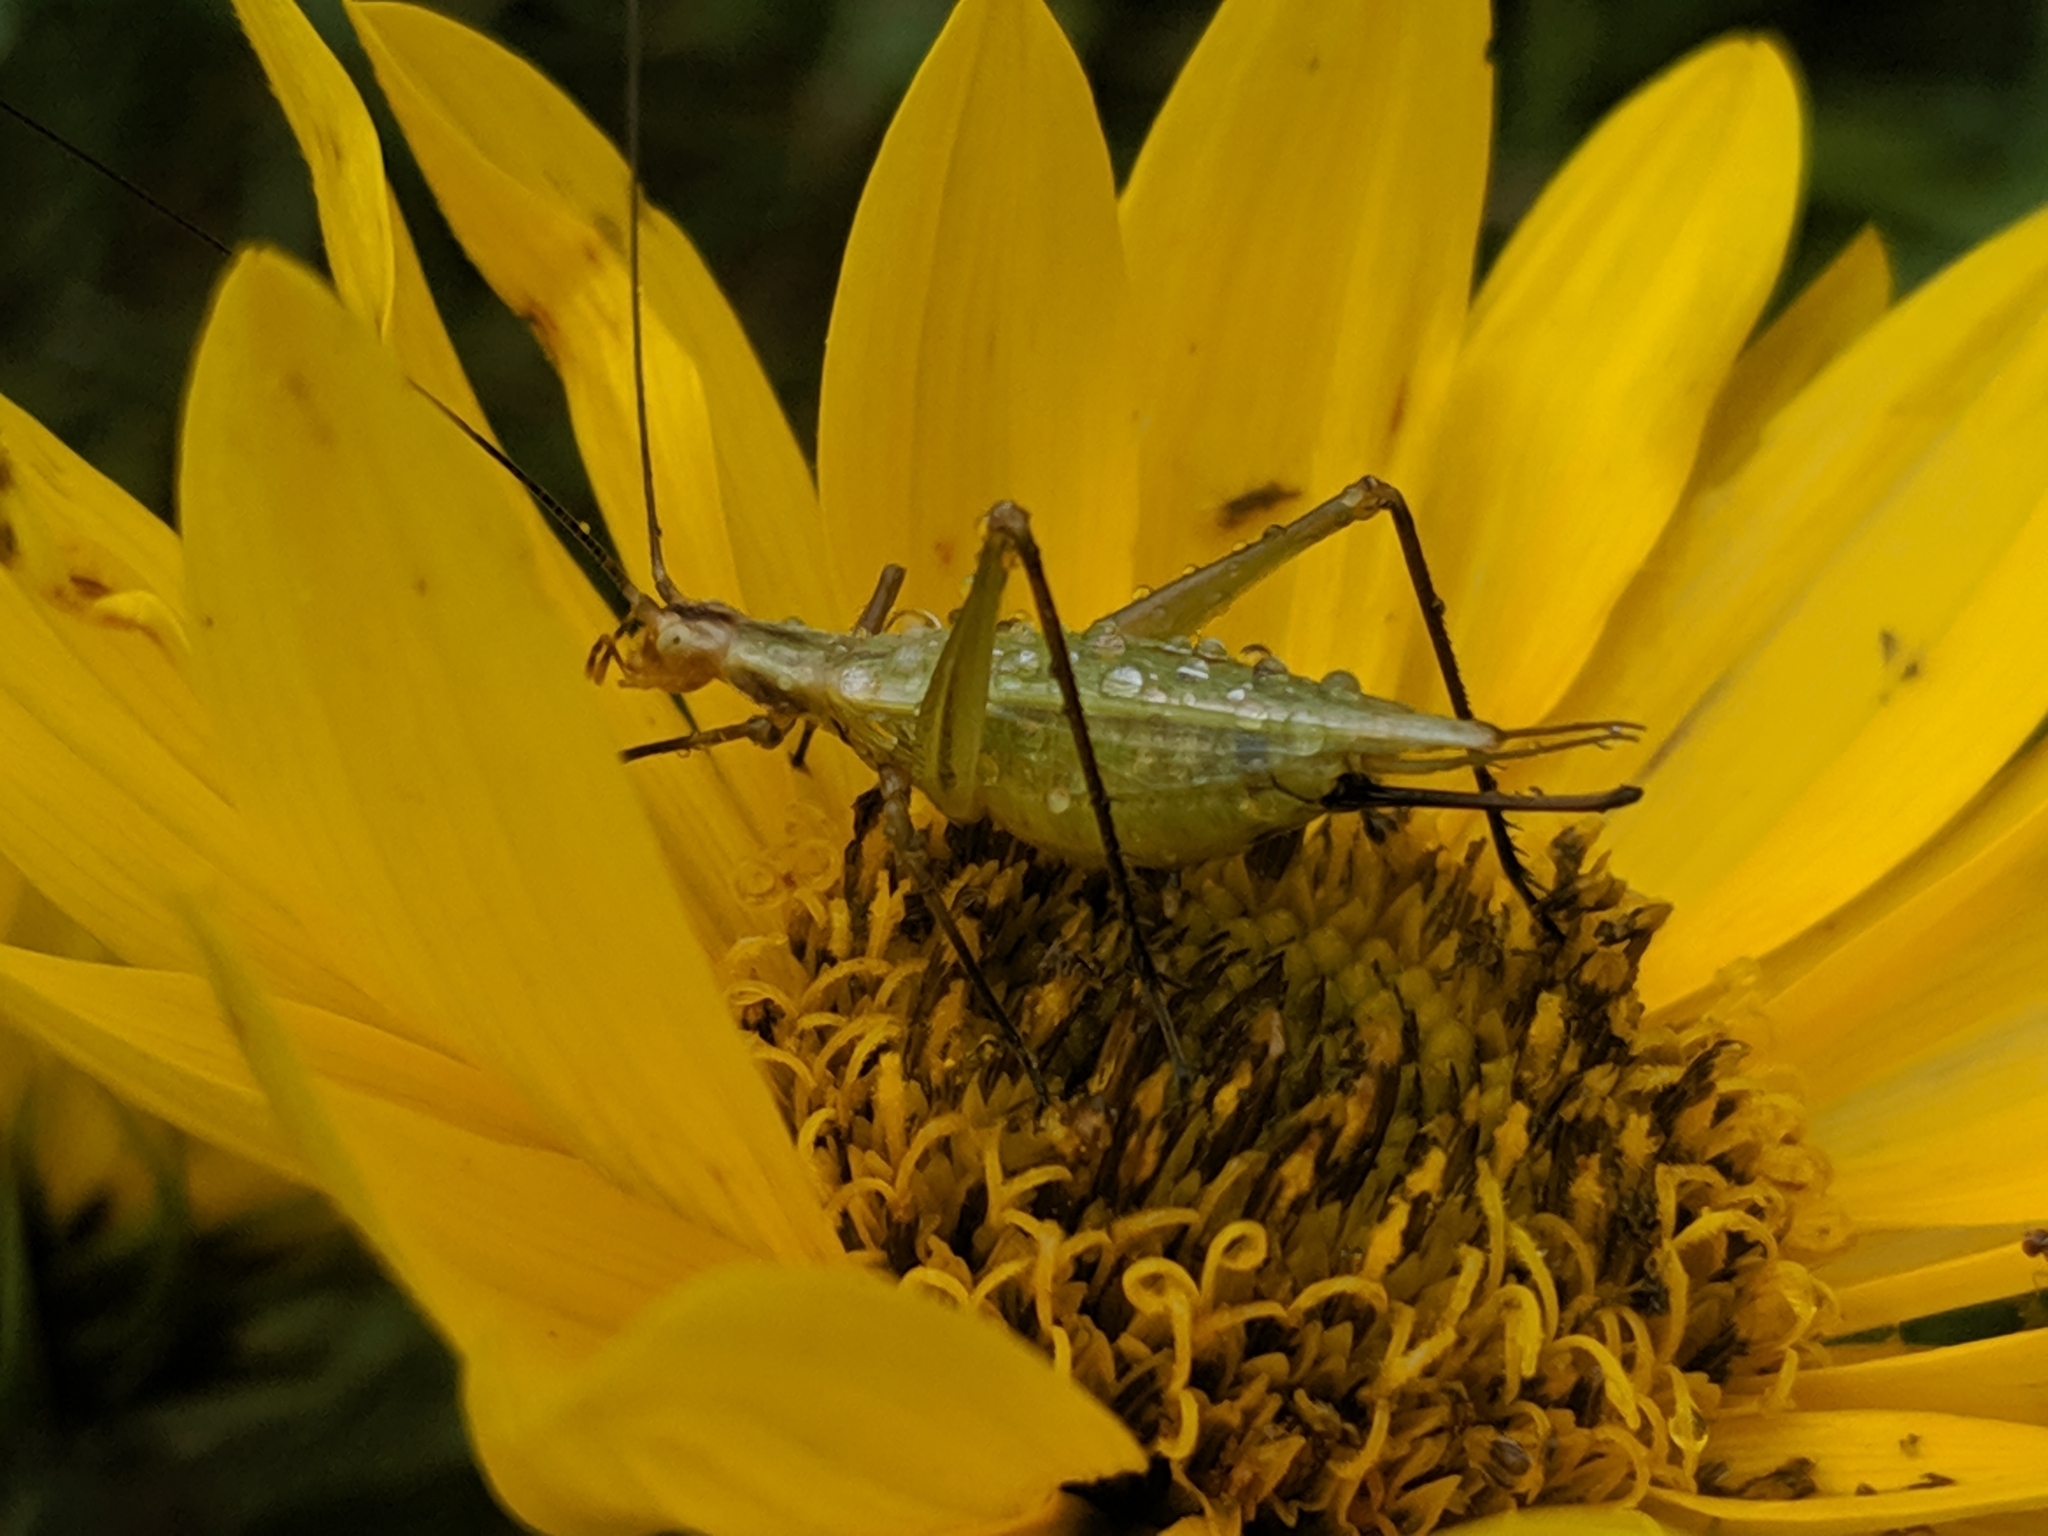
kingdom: Animalia
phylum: Arthropoda
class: Insecta
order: Orthoptera
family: Gryllidae
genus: Oecanthus
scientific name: Oecanthus forbesi
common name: Forbes’s tree cricket
